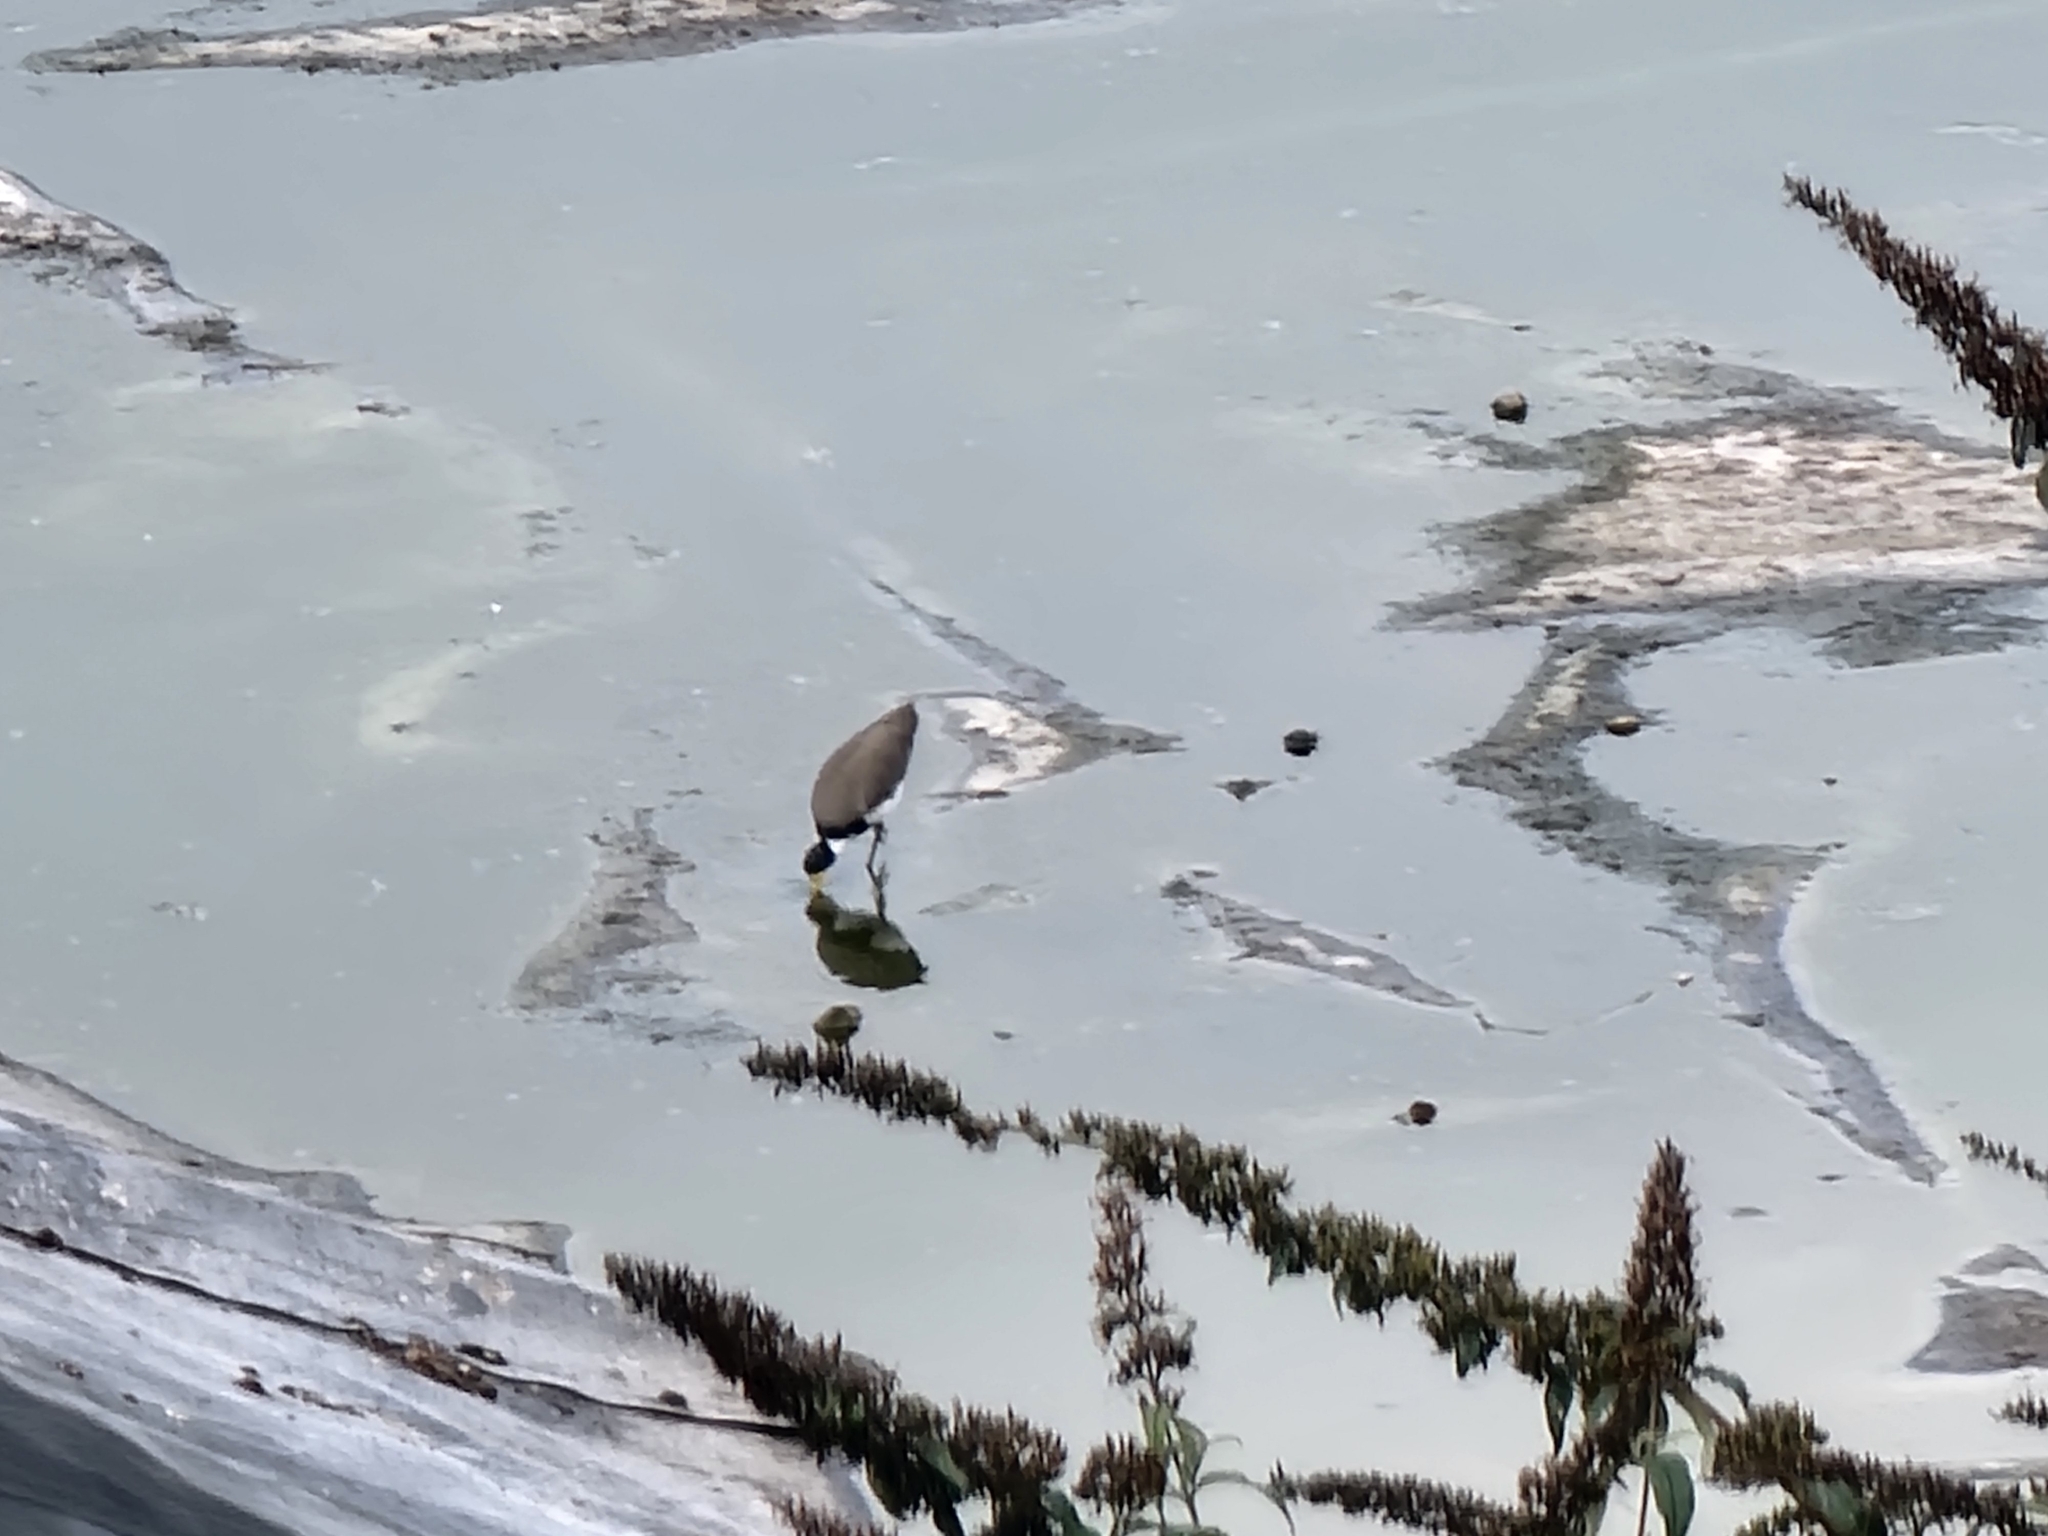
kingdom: Animalia
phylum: Chordata
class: Aves
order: Charadriiformes
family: Charadriidae
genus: Vanellus
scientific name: Vanellus miles
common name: Masked lapwing
